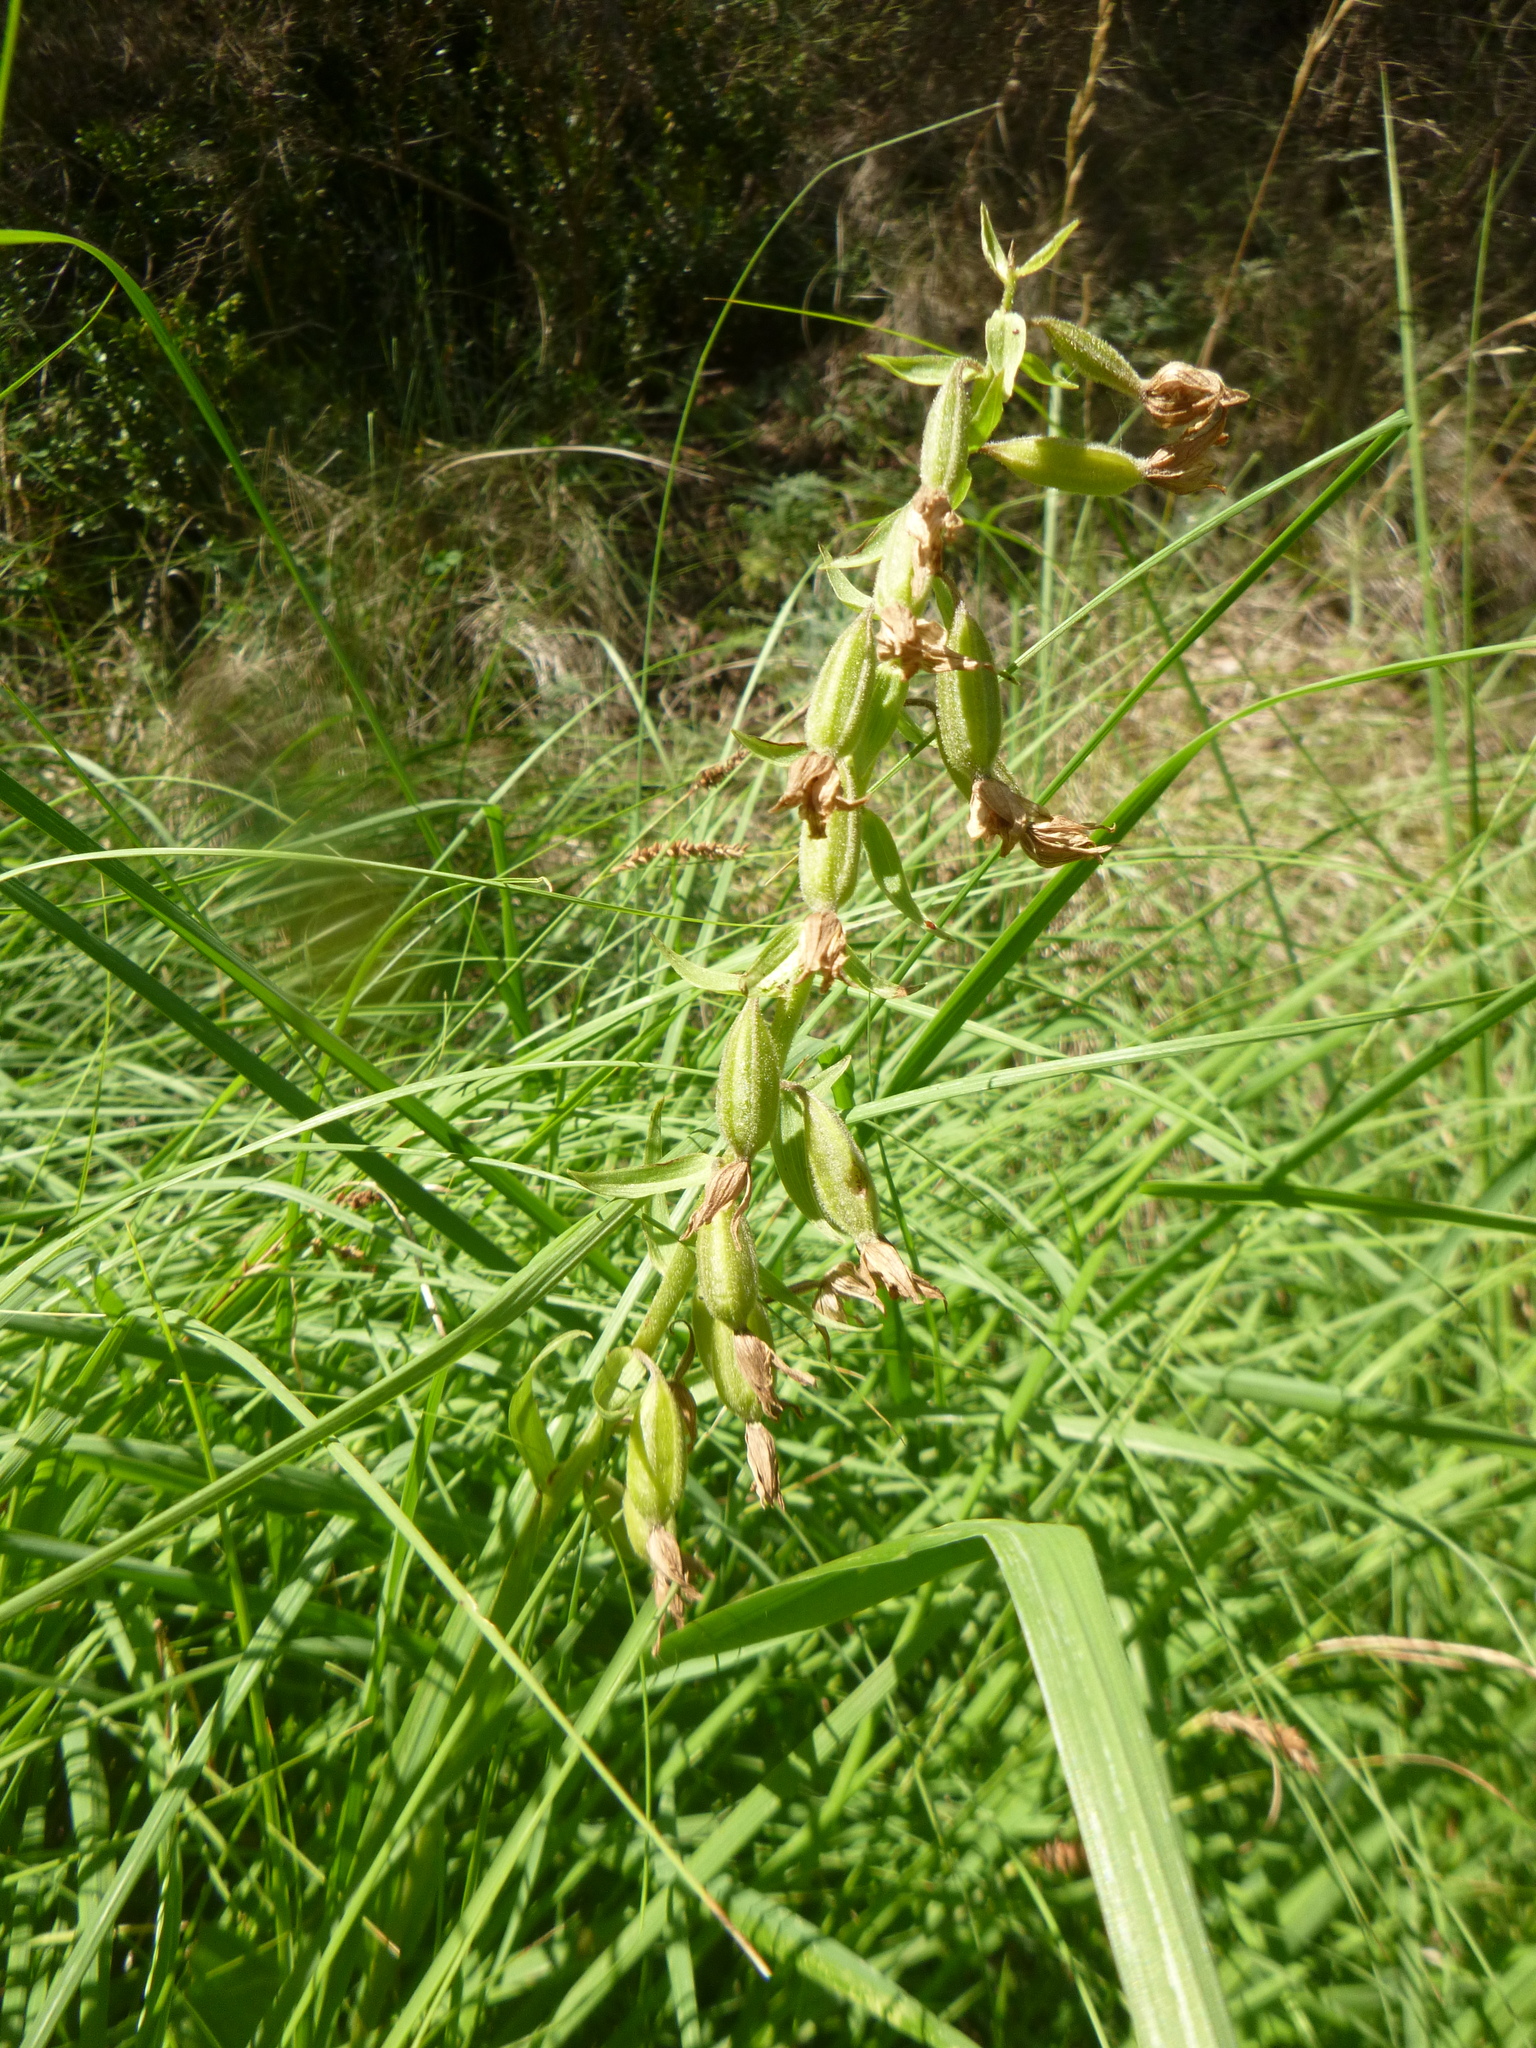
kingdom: Plantae
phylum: Tracheophyta
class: Liliopsida
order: Asparagales
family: Orchidaceae
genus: Epipactis
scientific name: Epipactis palustris
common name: Marsh helleborine
